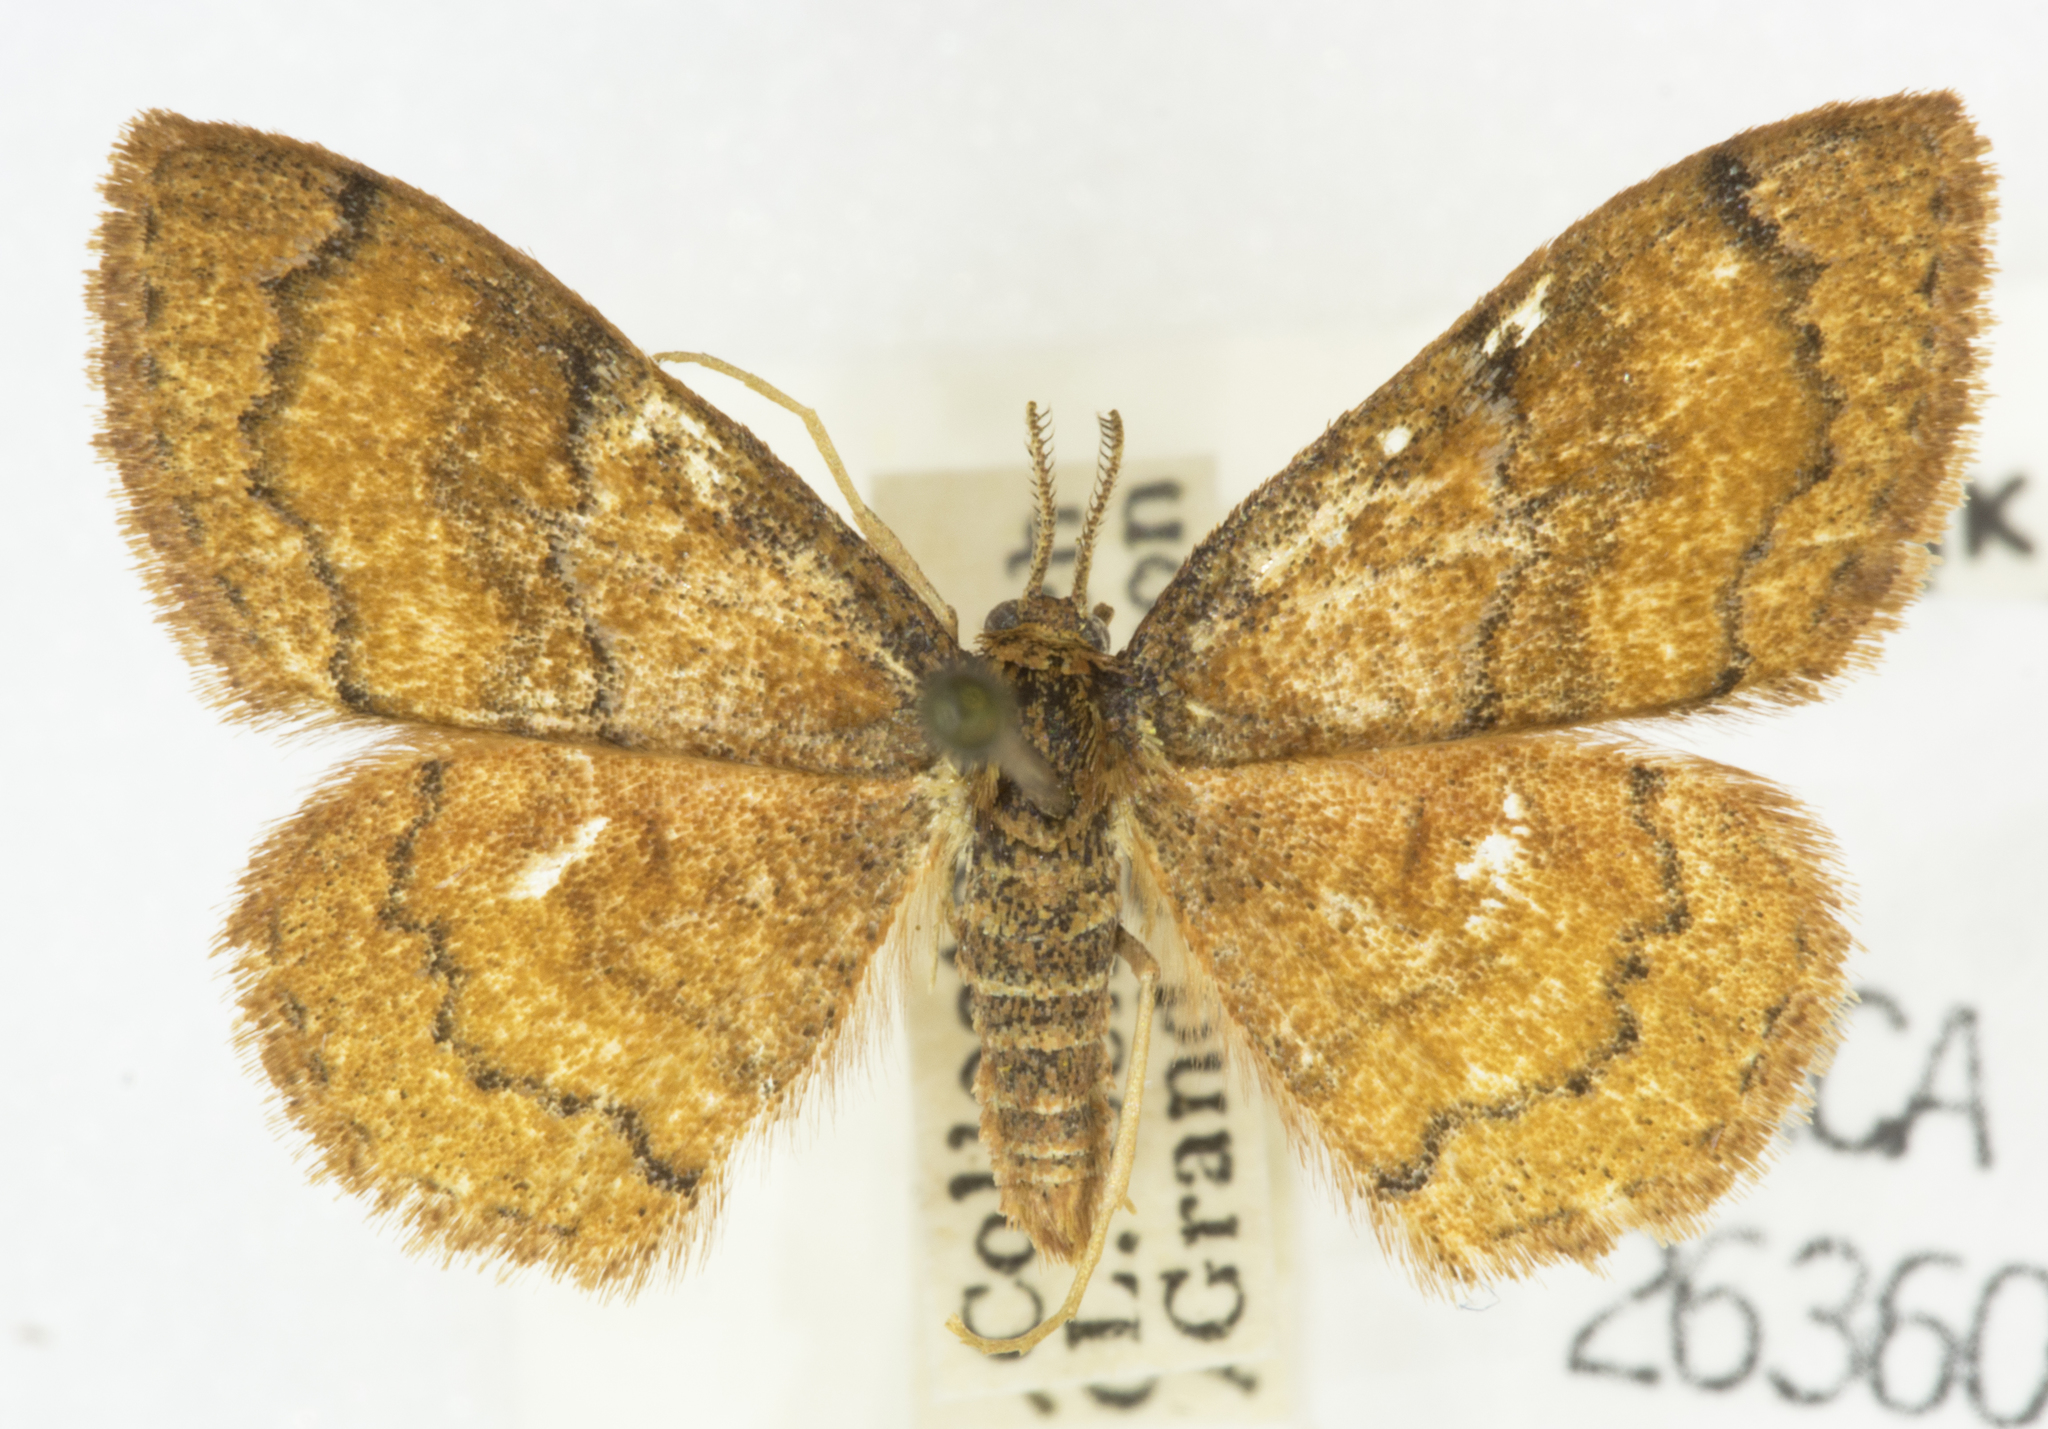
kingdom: Animalia
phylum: Arthropoda
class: Insecta
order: Lepidoptera
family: Geometridae
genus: Leptostales
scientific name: Leptostales rubromarginaria
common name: Dark-ribboned wave
